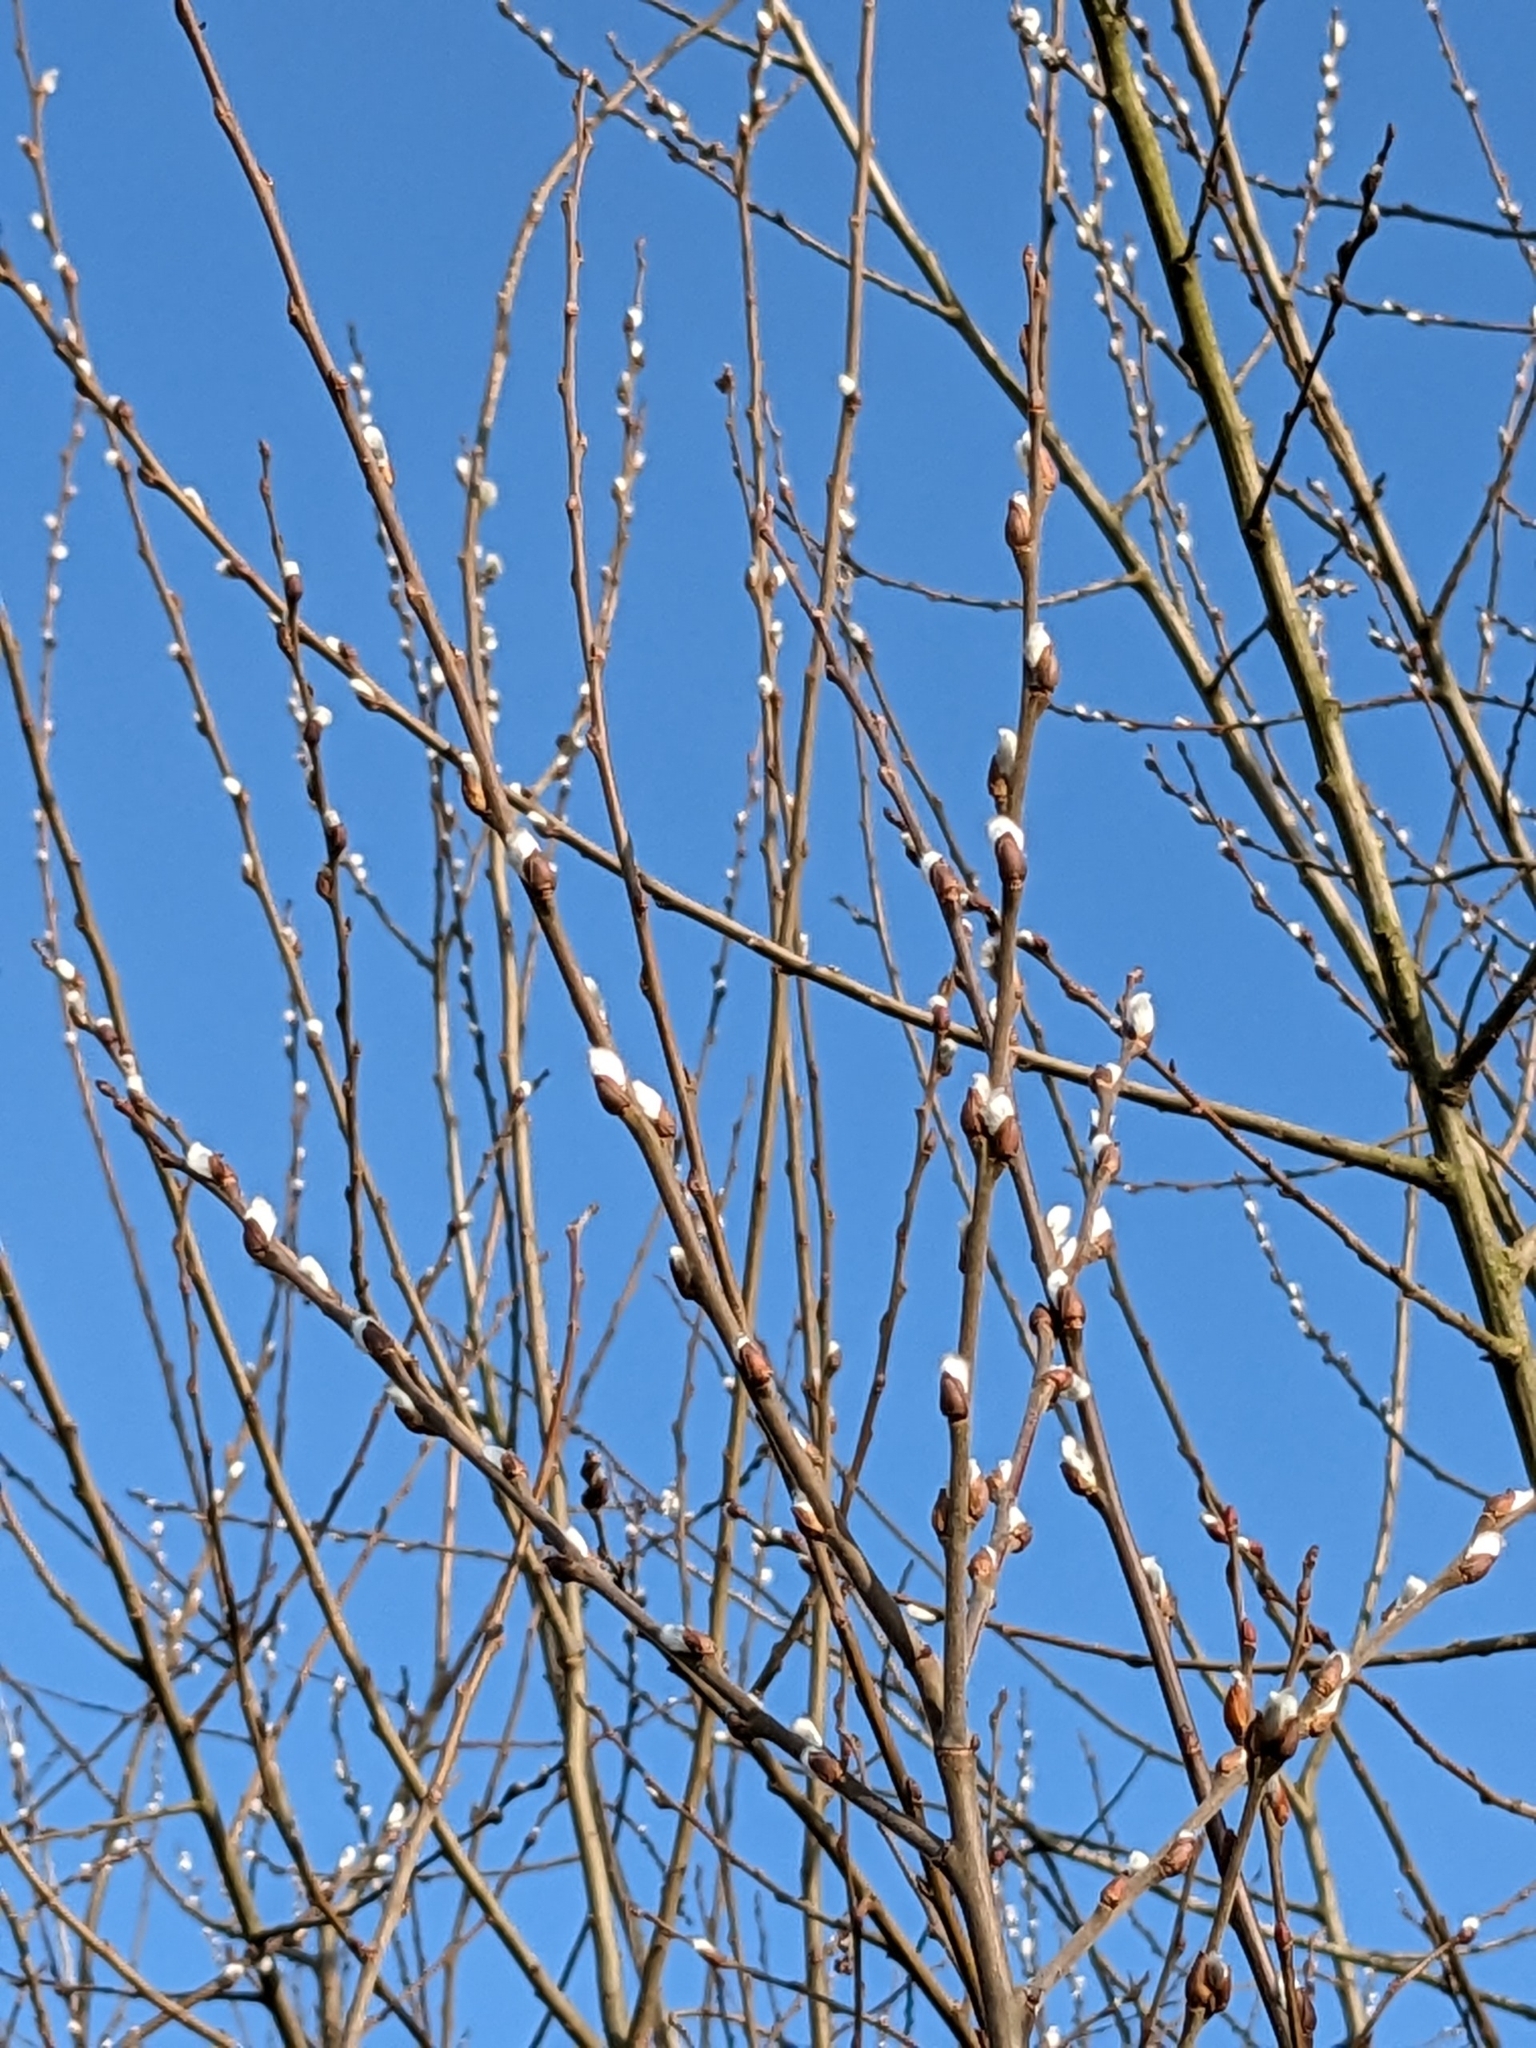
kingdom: Plantae
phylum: Tracheophyta
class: Magnoliopsida
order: Malpighiales
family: Salicaceae
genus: Salix
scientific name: Salix caprea
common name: Goat willow
